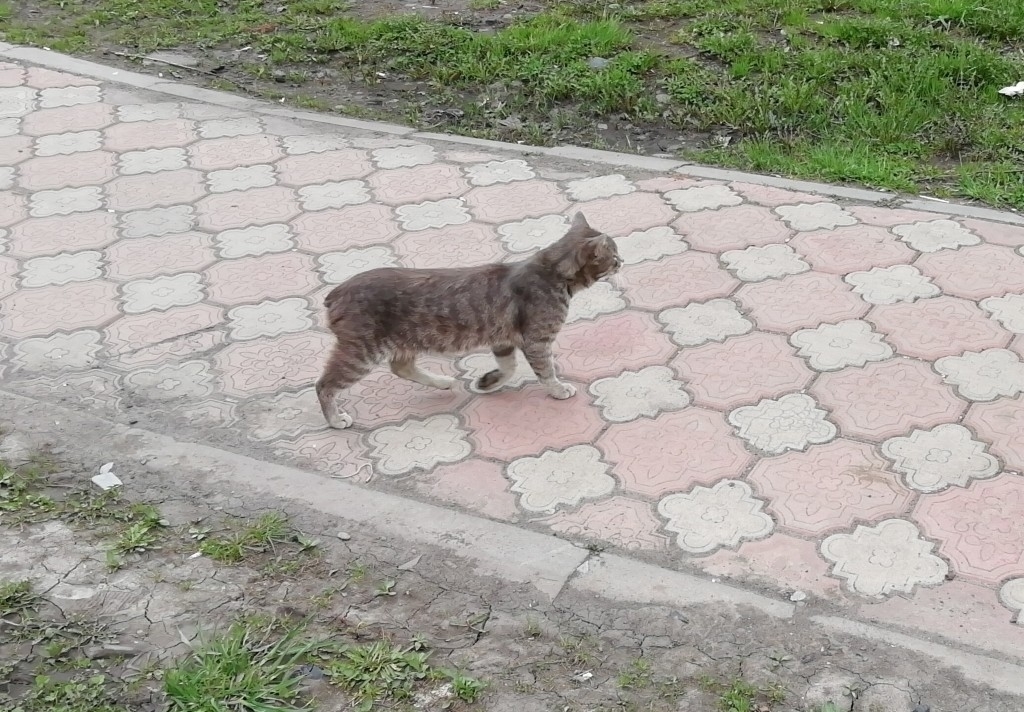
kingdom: Animalia
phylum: Chordata
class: Mammalia
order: Carnivora
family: Felidae
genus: Felis
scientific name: Felis catus
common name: Domestic cat
